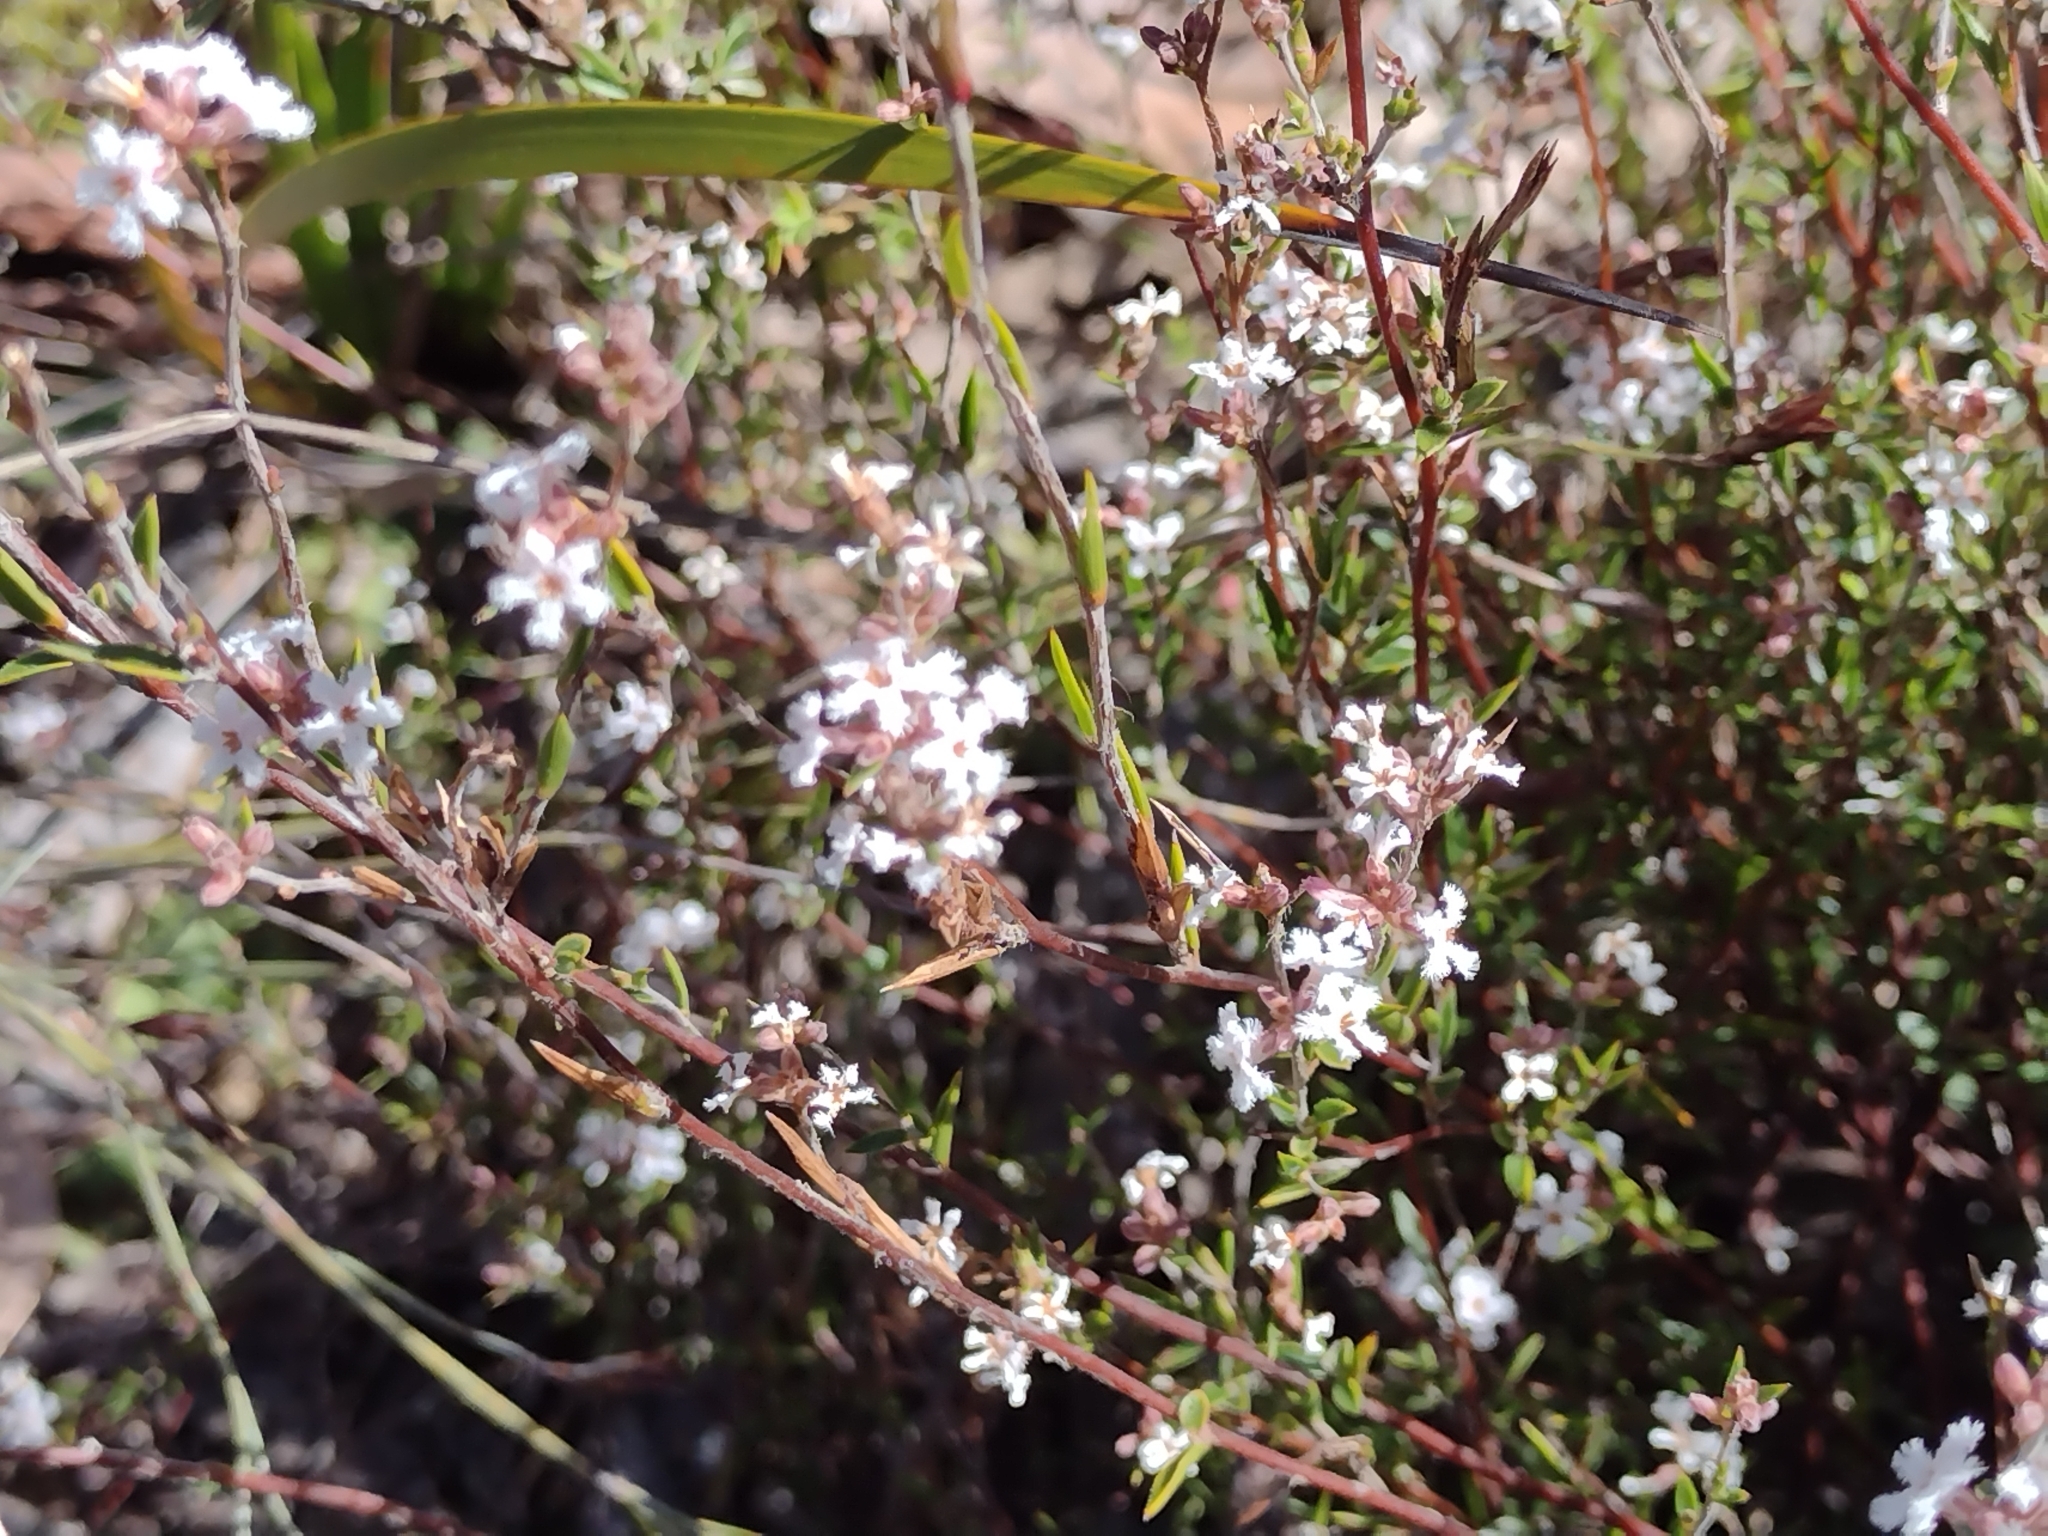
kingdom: Plantae
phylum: Tracheophyta
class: Magnoliopsida
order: Ericales
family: Ericaceae
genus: Leucopogon
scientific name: Leucopogon virgatus
